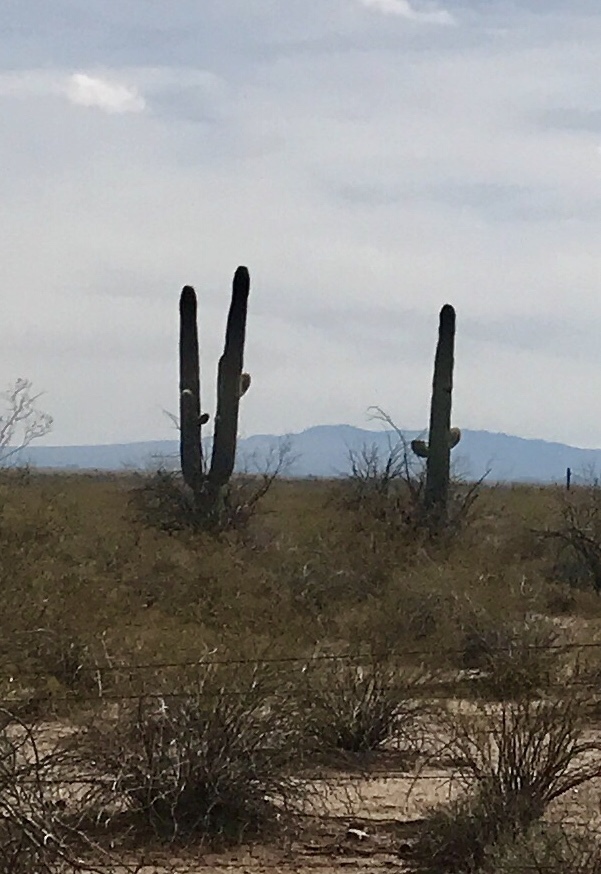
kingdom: Plantae
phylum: Tracheophyta
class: Magnoliopsida
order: Caryophyllales
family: Cactaceae
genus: Carnegiea
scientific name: Carnegiea gigantea
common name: Saguaro
